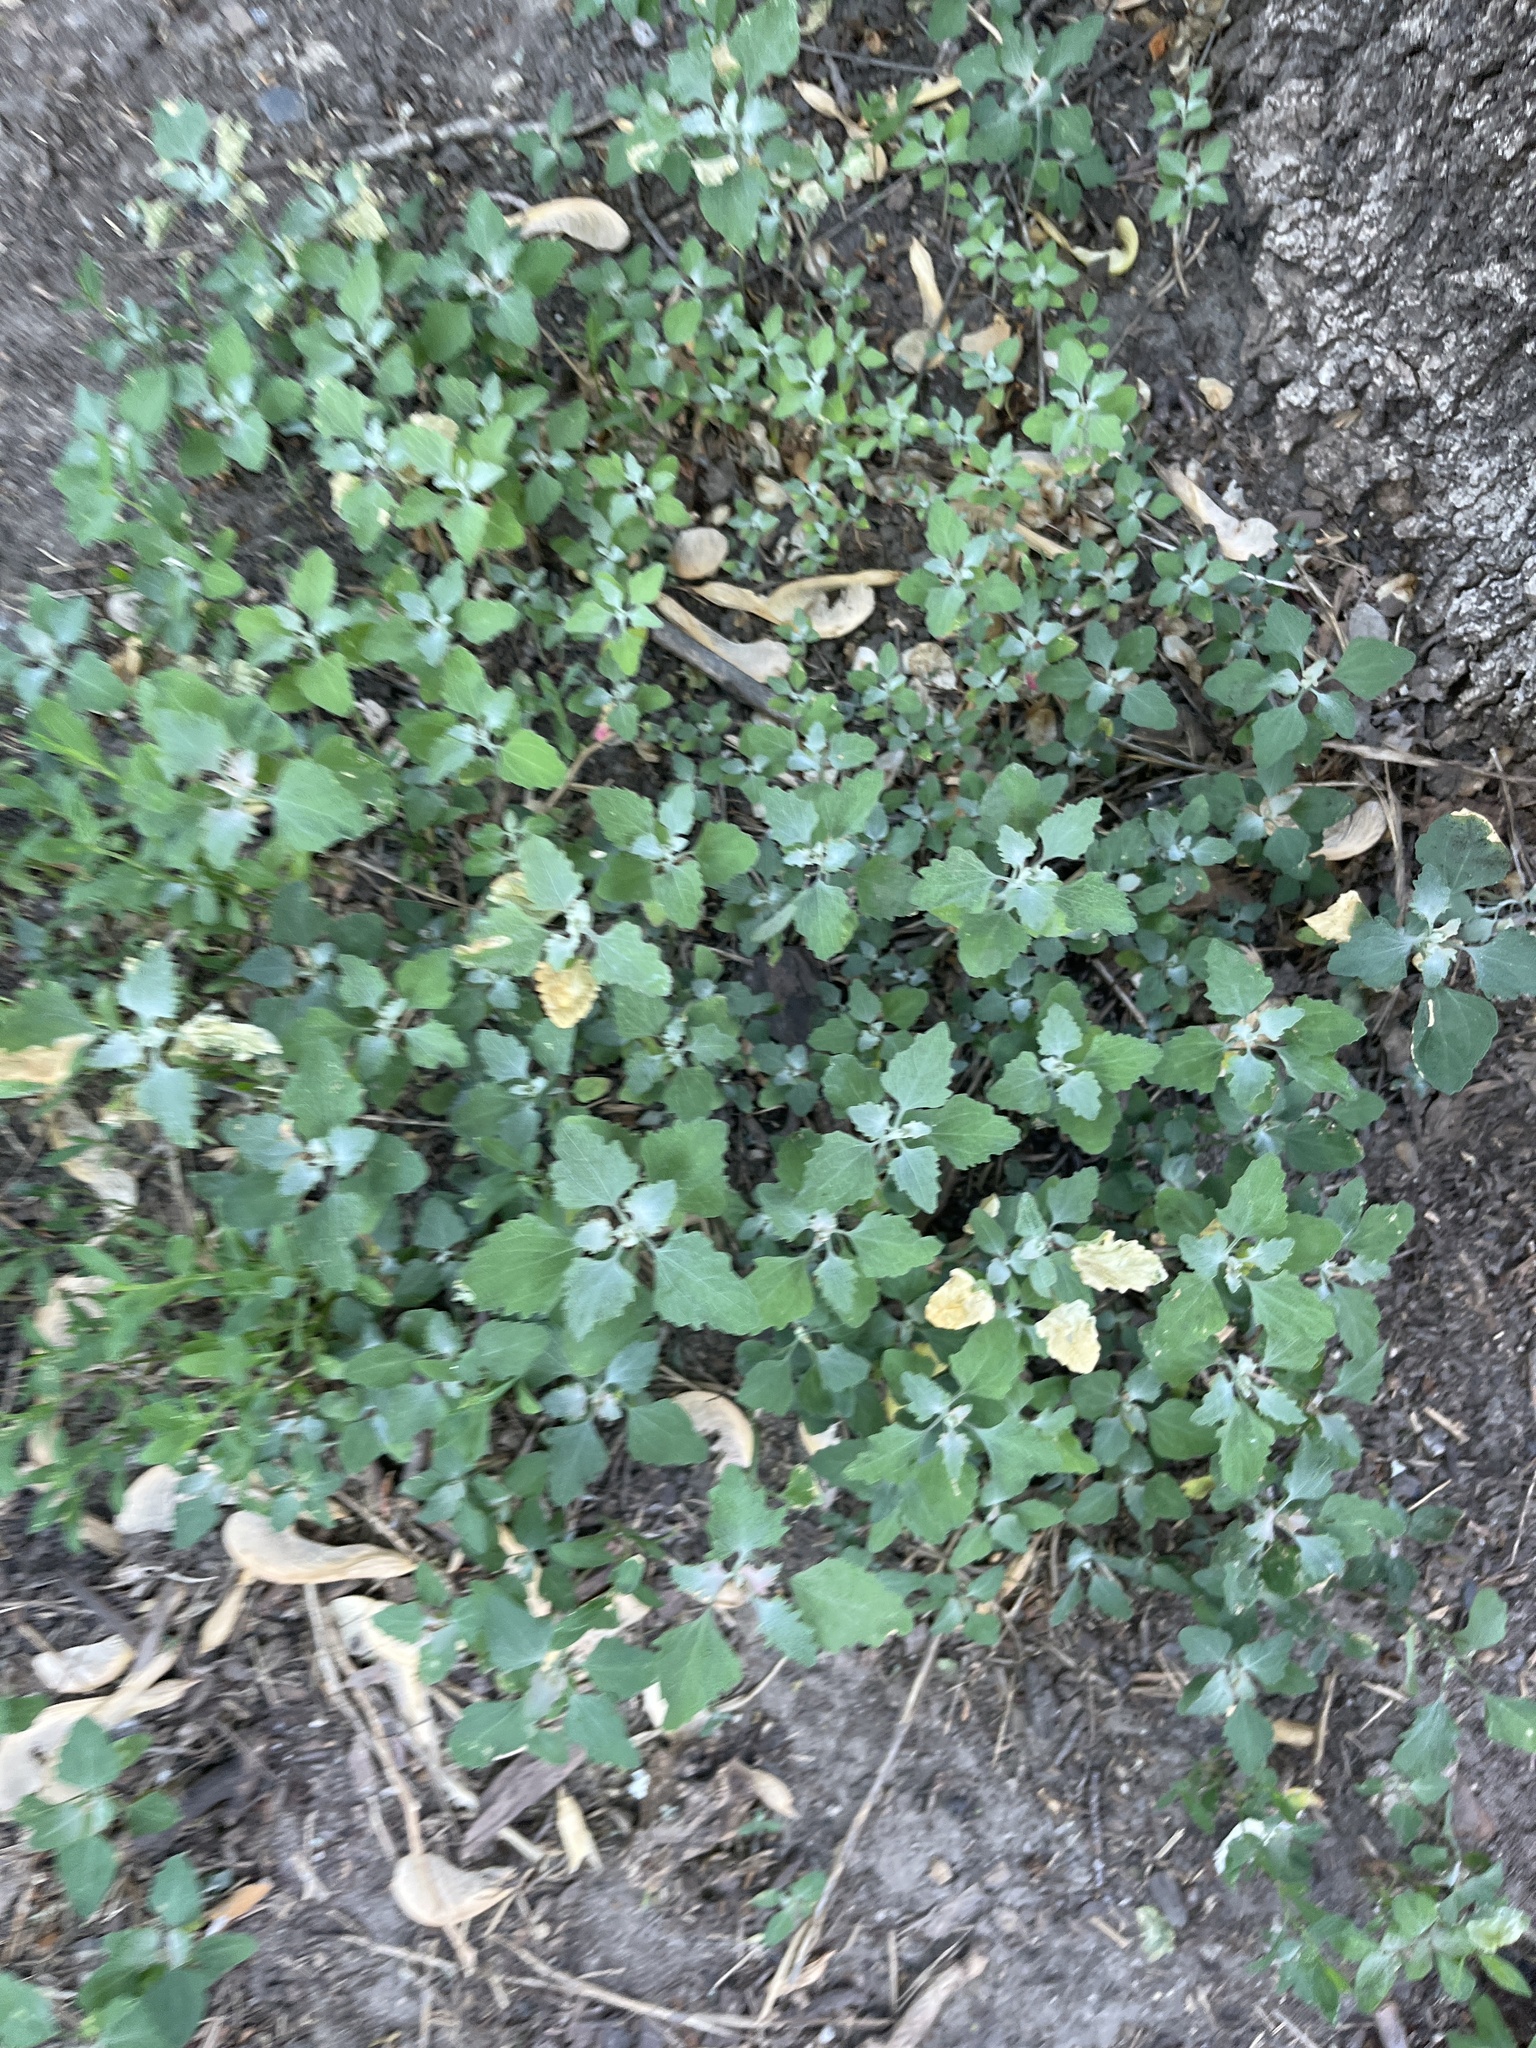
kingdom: Plantae
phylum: Tracheophyta
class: Magnoliopsida
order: Caryophyllales
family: Amaranthaceae
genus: Chenopodium
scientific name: Chenopodium album
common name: Fat-hen
